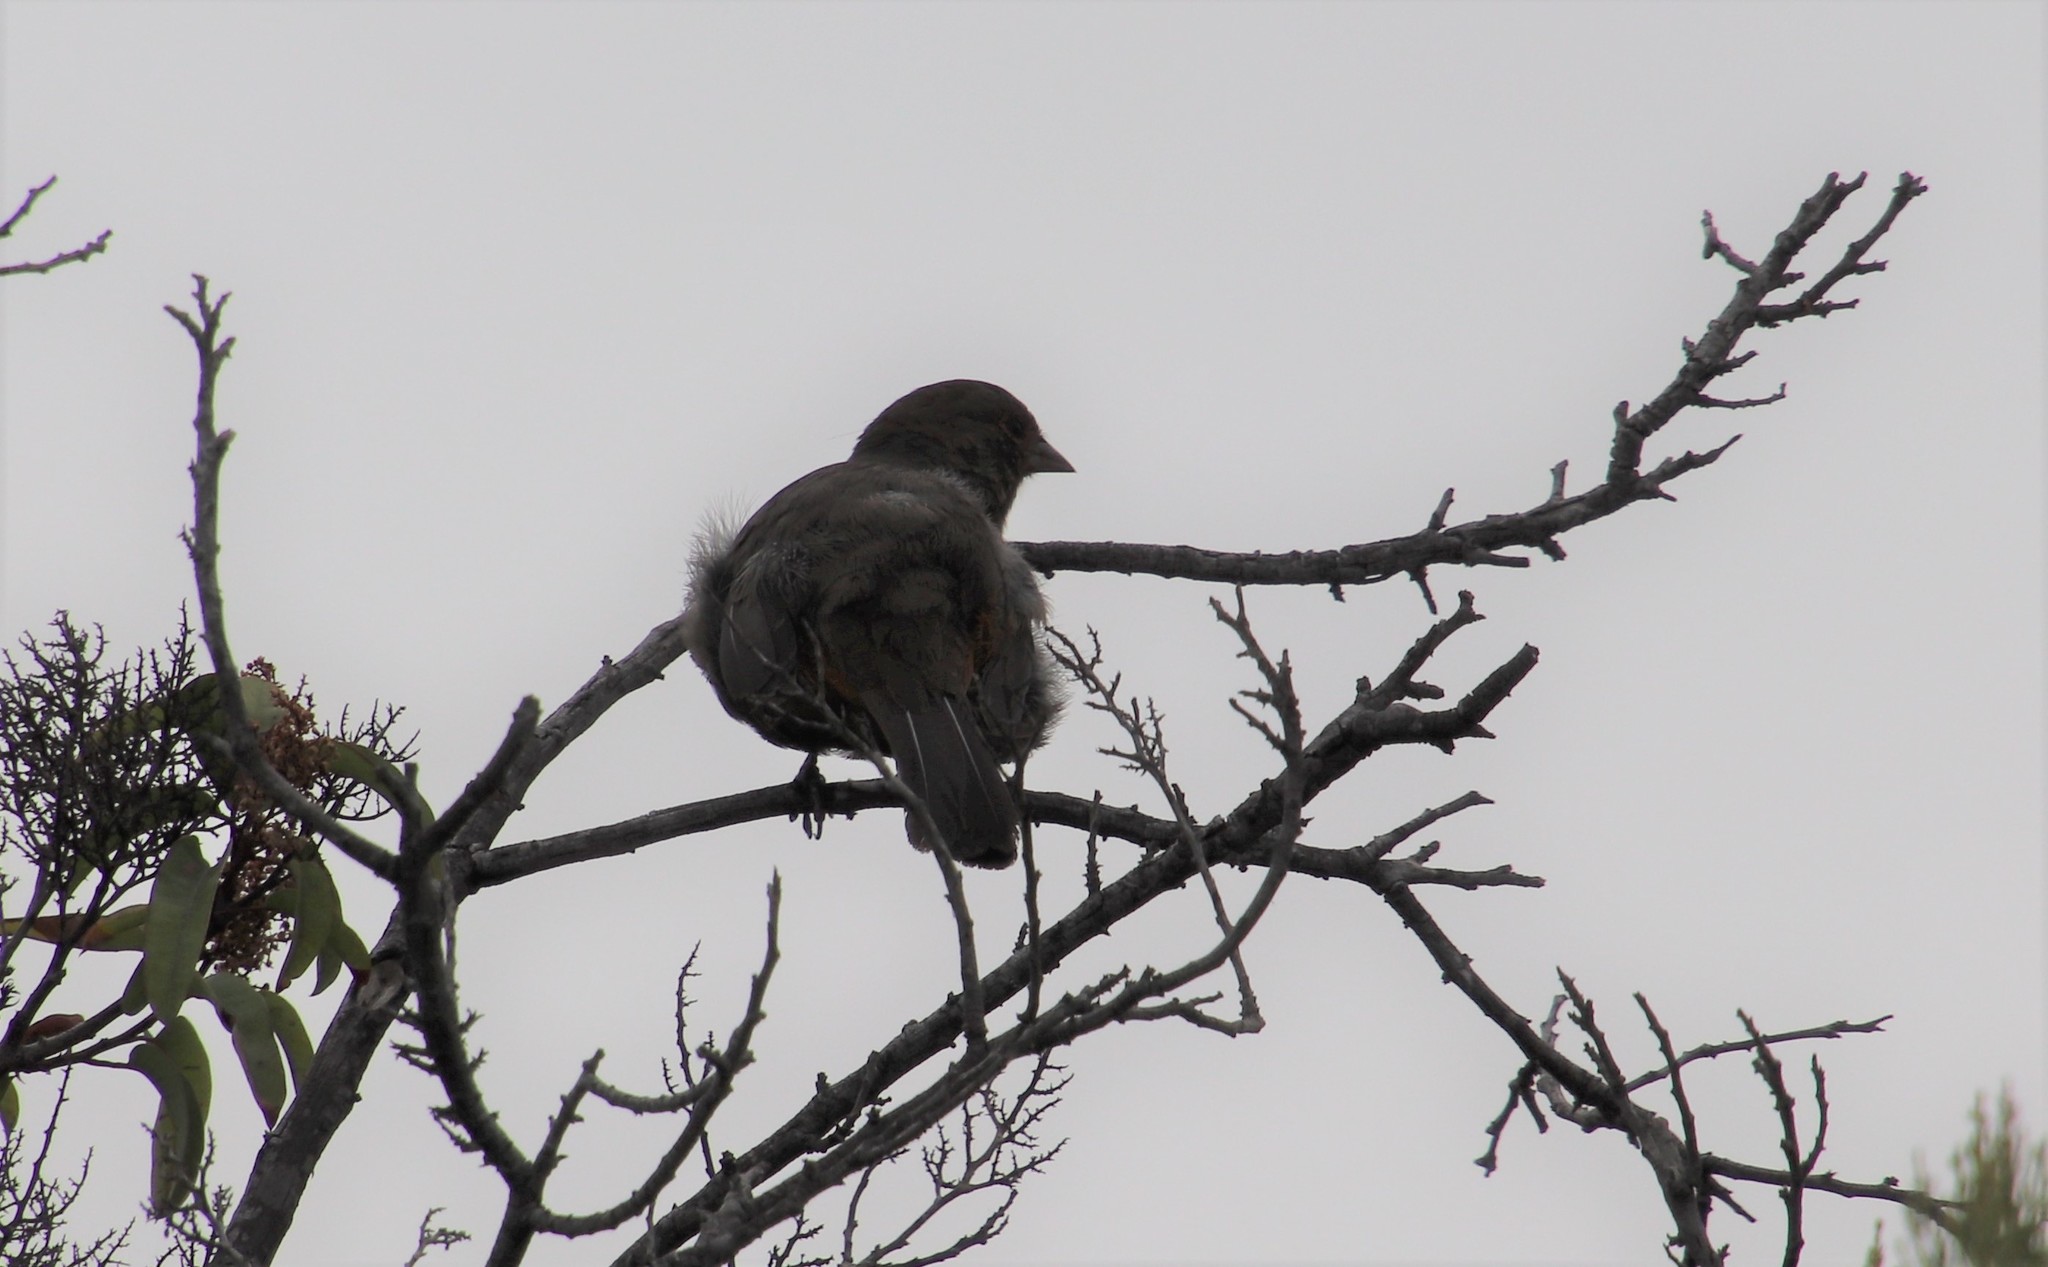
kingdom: Animalia
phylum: Chordata
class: Aves
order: Passeriformes
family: Passerellidae
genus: Melozone
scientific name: Melozone crissalis
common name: California towhee
